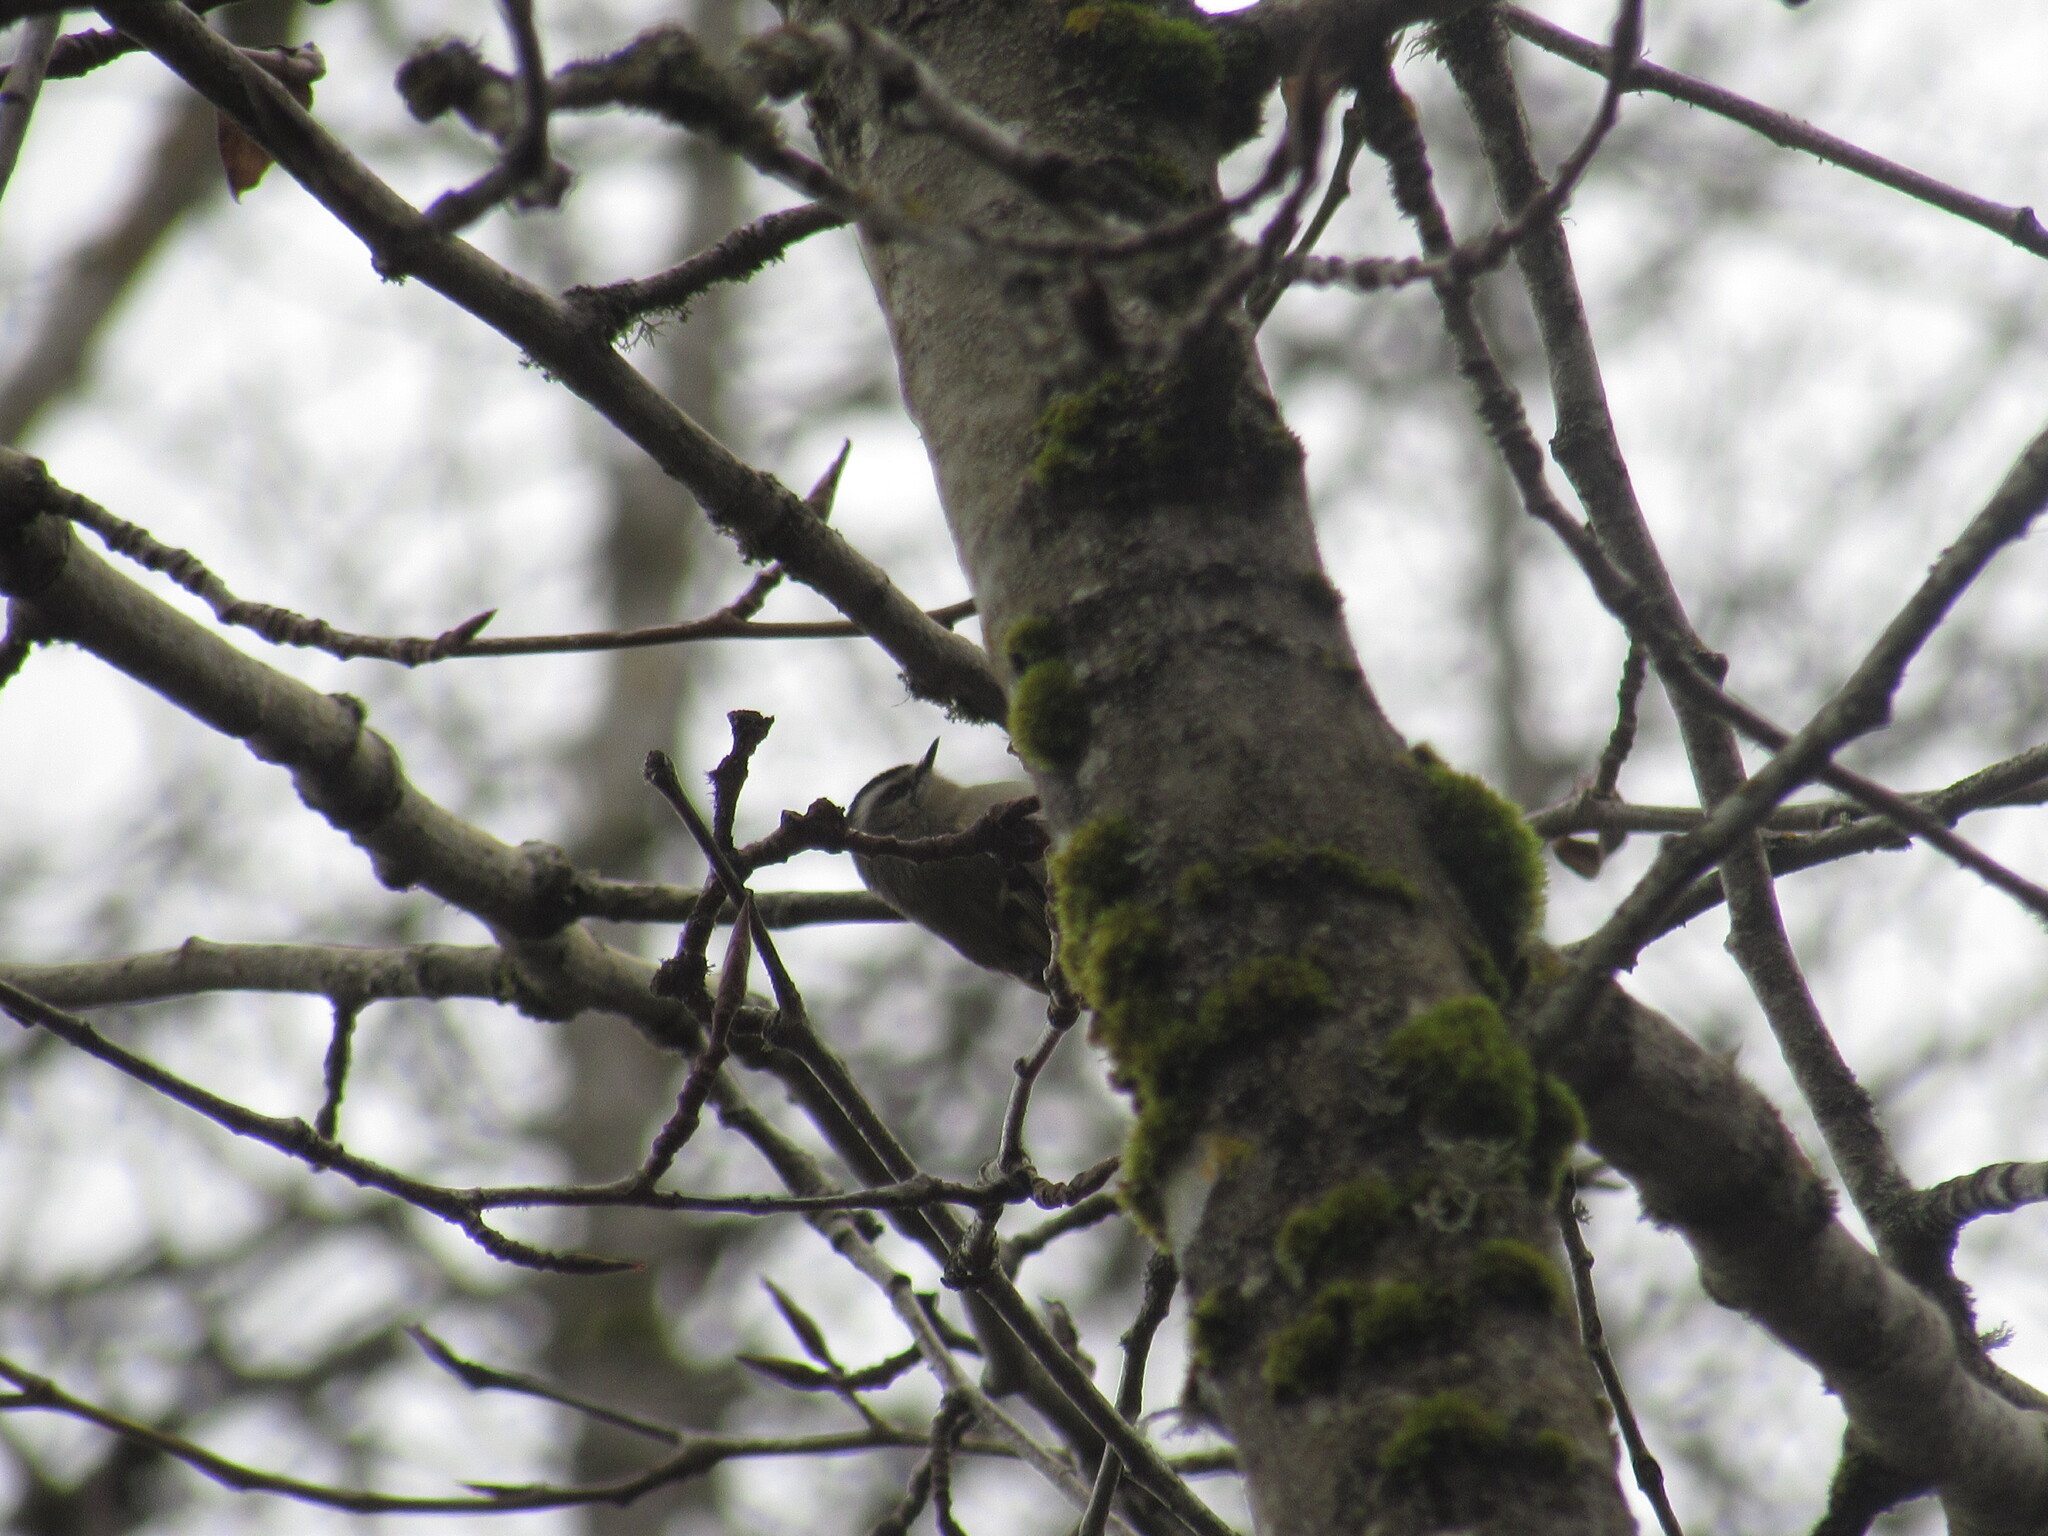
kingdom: Animalia
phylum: Chordata
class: Aves
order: Passeriformes
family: Regulidae
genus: Regulus
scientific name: Regulus satrapa
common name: Golden-crowned kinglet
